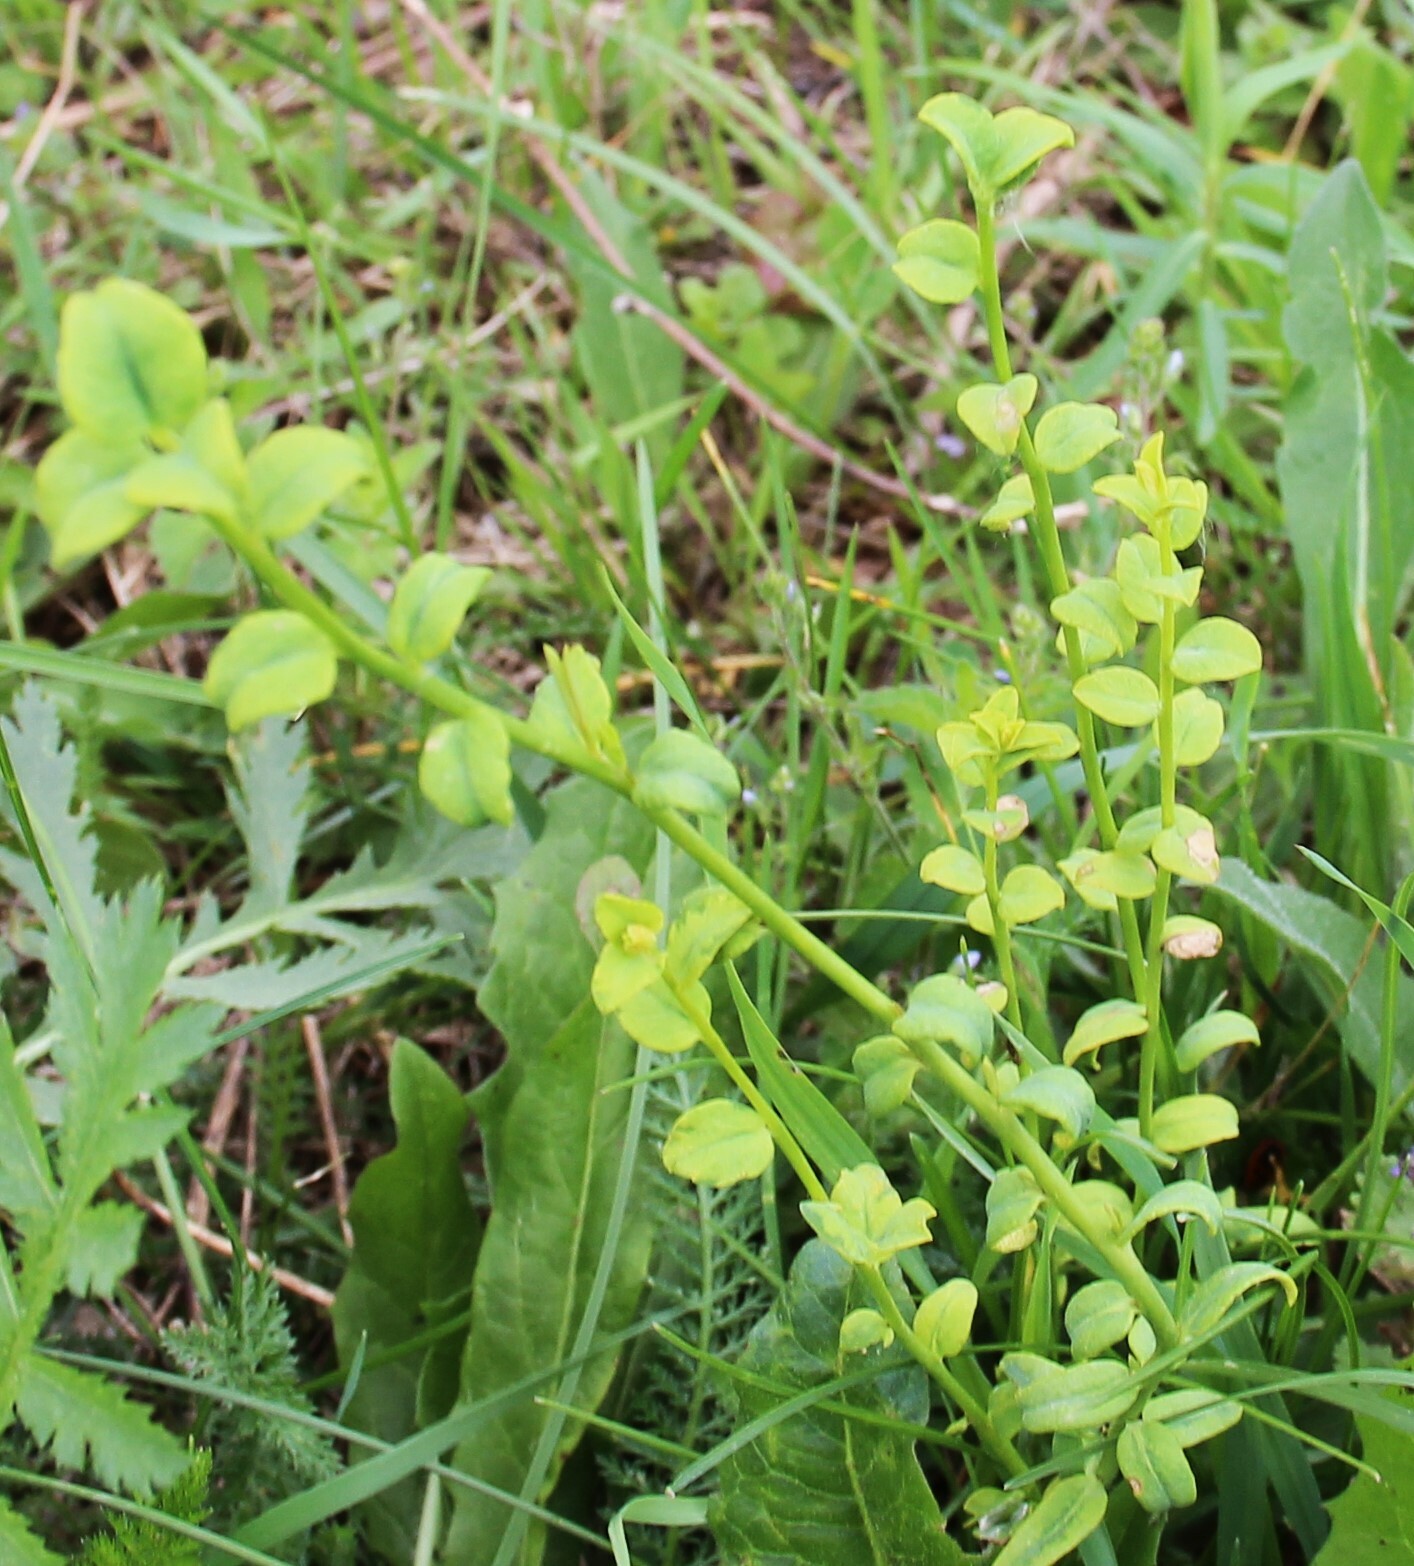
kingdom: Plantae
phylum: Tracheophyta
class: Magnoliopsida
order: Malpighiales
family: Euphorbiaceae
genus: Euphorbia
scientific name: Euphorbia virgata
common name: Leafy spurge
